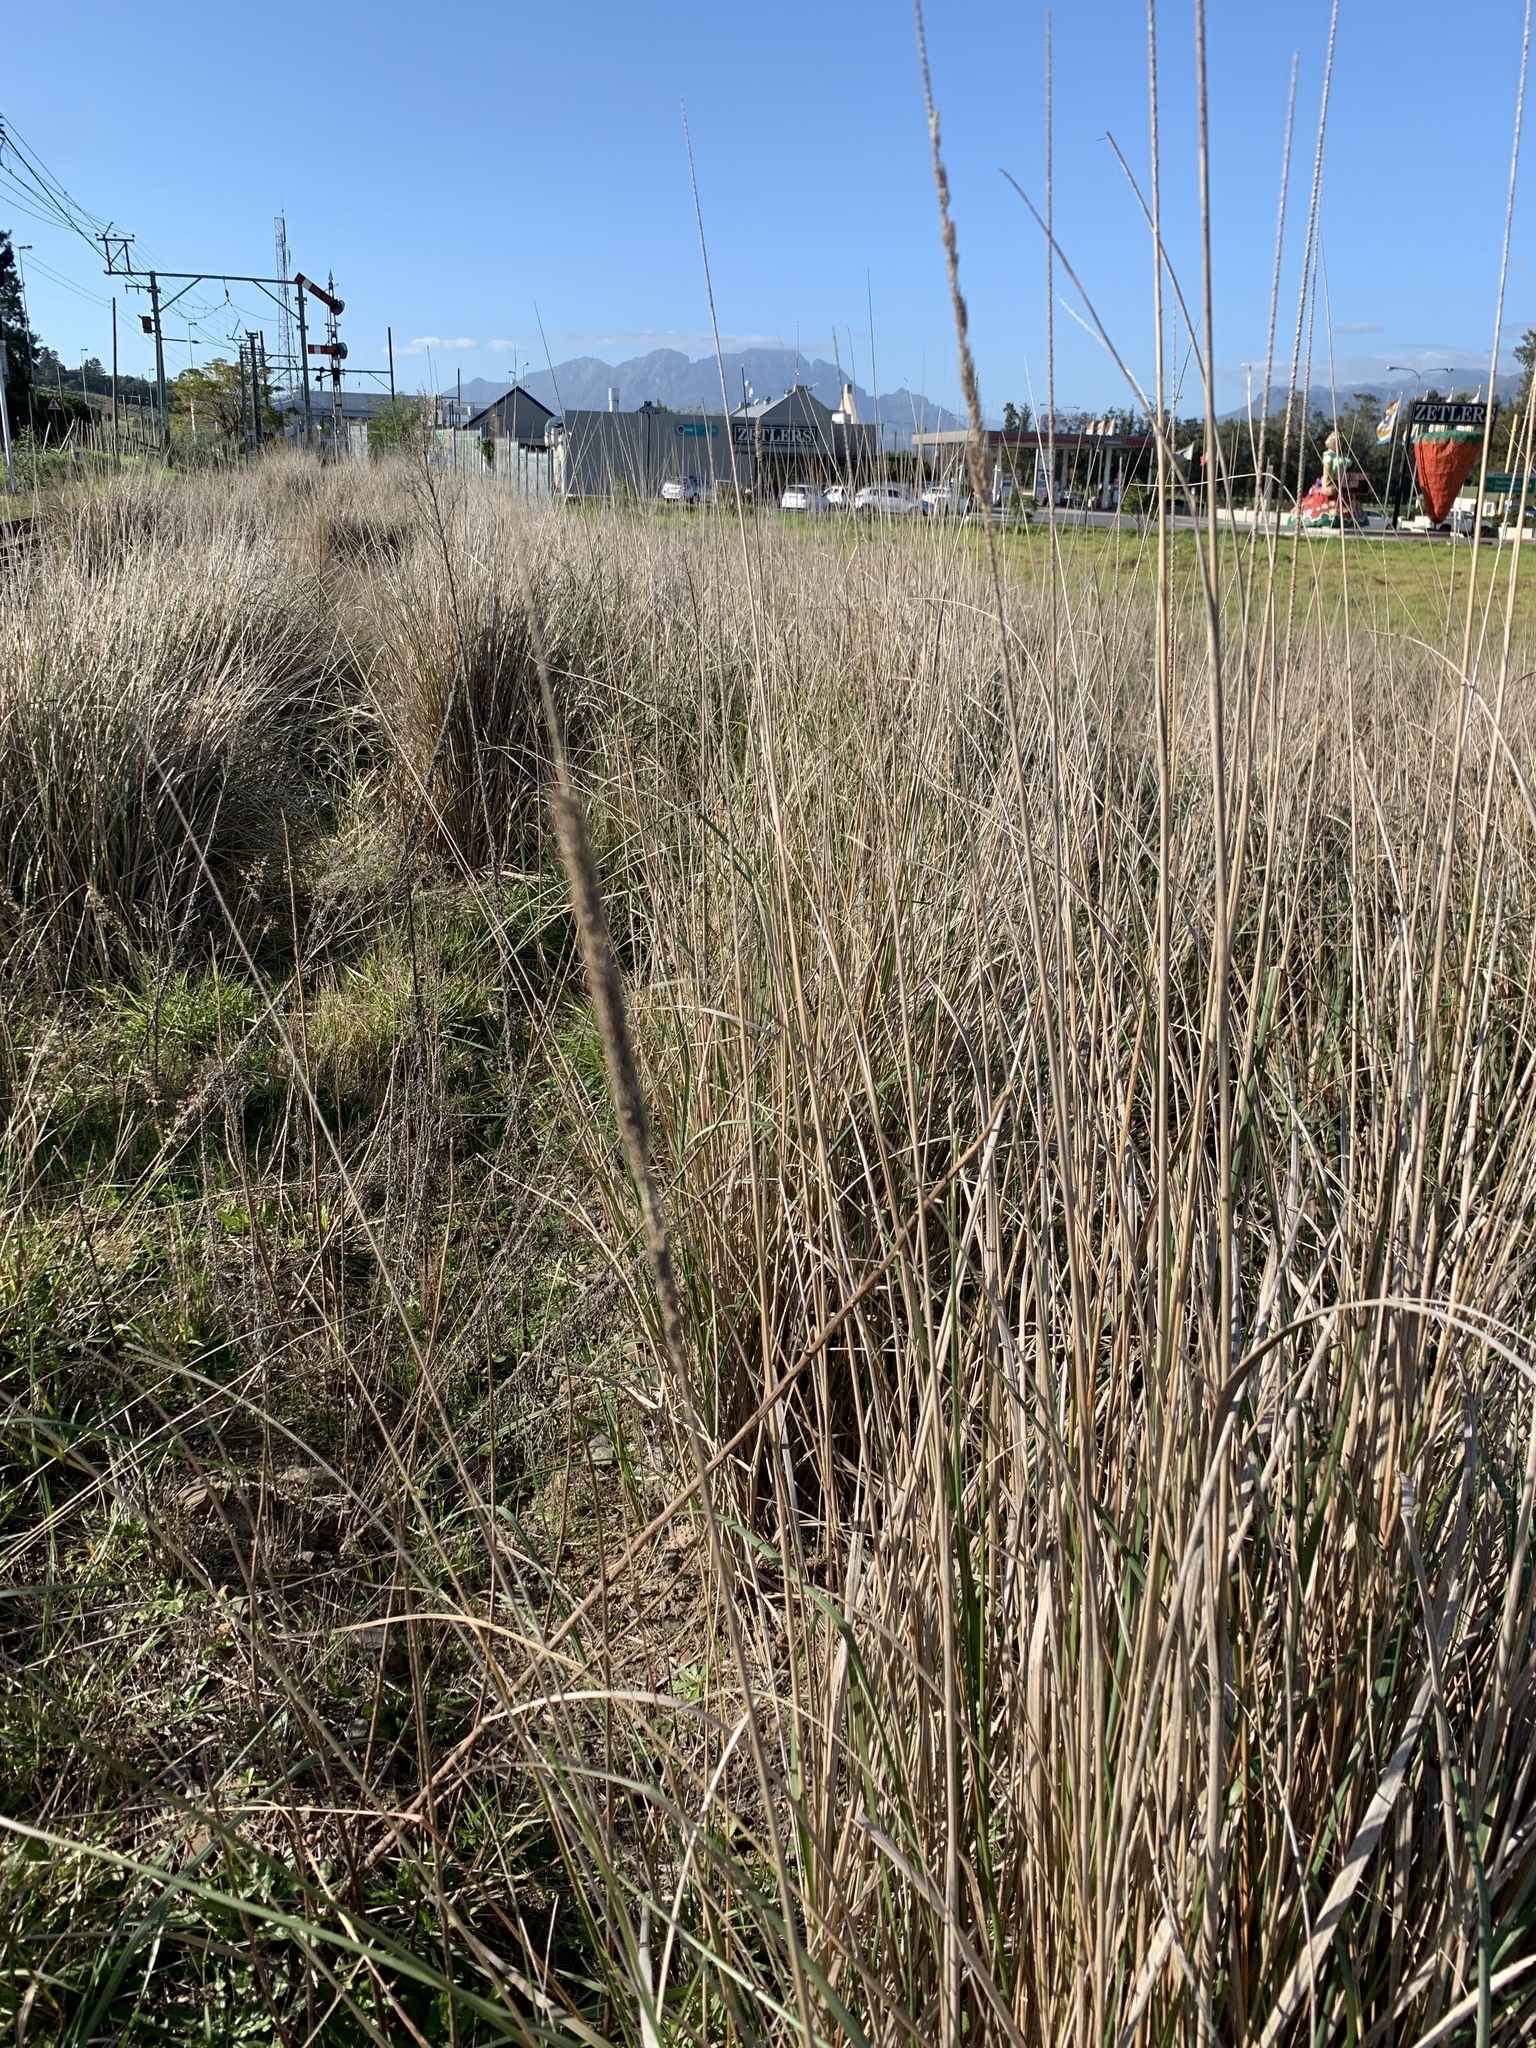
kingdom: Plantae
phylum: Tracheophyta
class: Liliopsida
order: Poales
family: Poaceae
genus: Cenchrus
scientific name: Cenchrus caudatus
